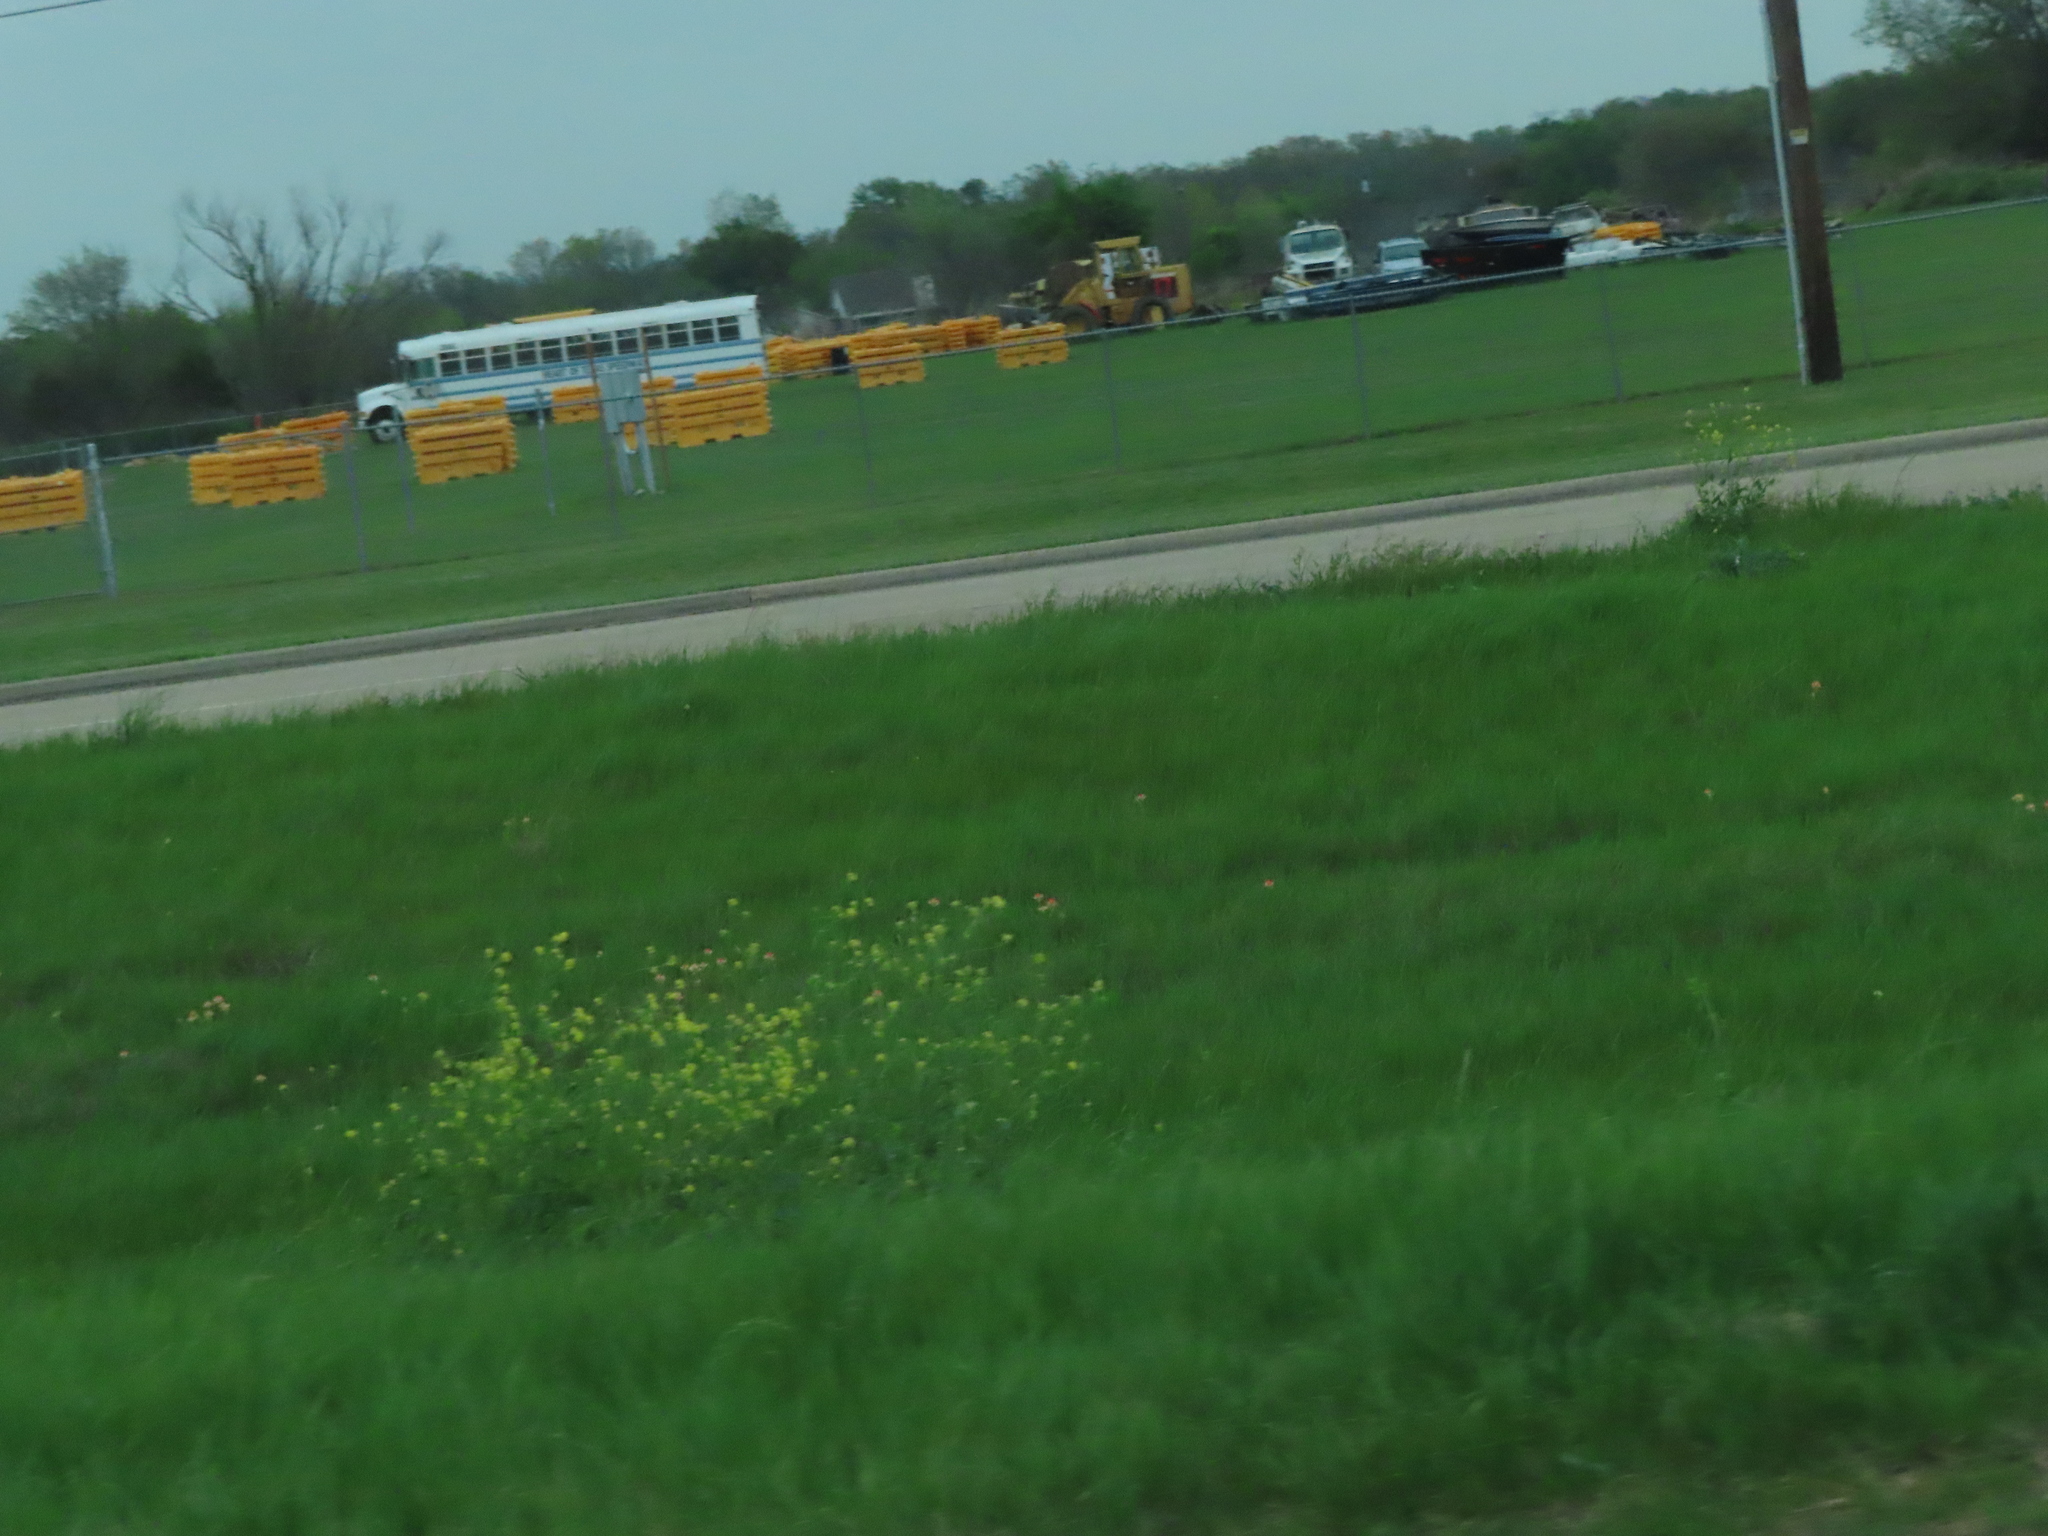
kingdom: Plantae
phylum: Tracheophyta
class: Magnoliopsida
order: Brassicales
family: Brassicaceae
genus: Rapistrum
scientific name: Rapistrum rugosum
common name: Annual bastardcabbage
